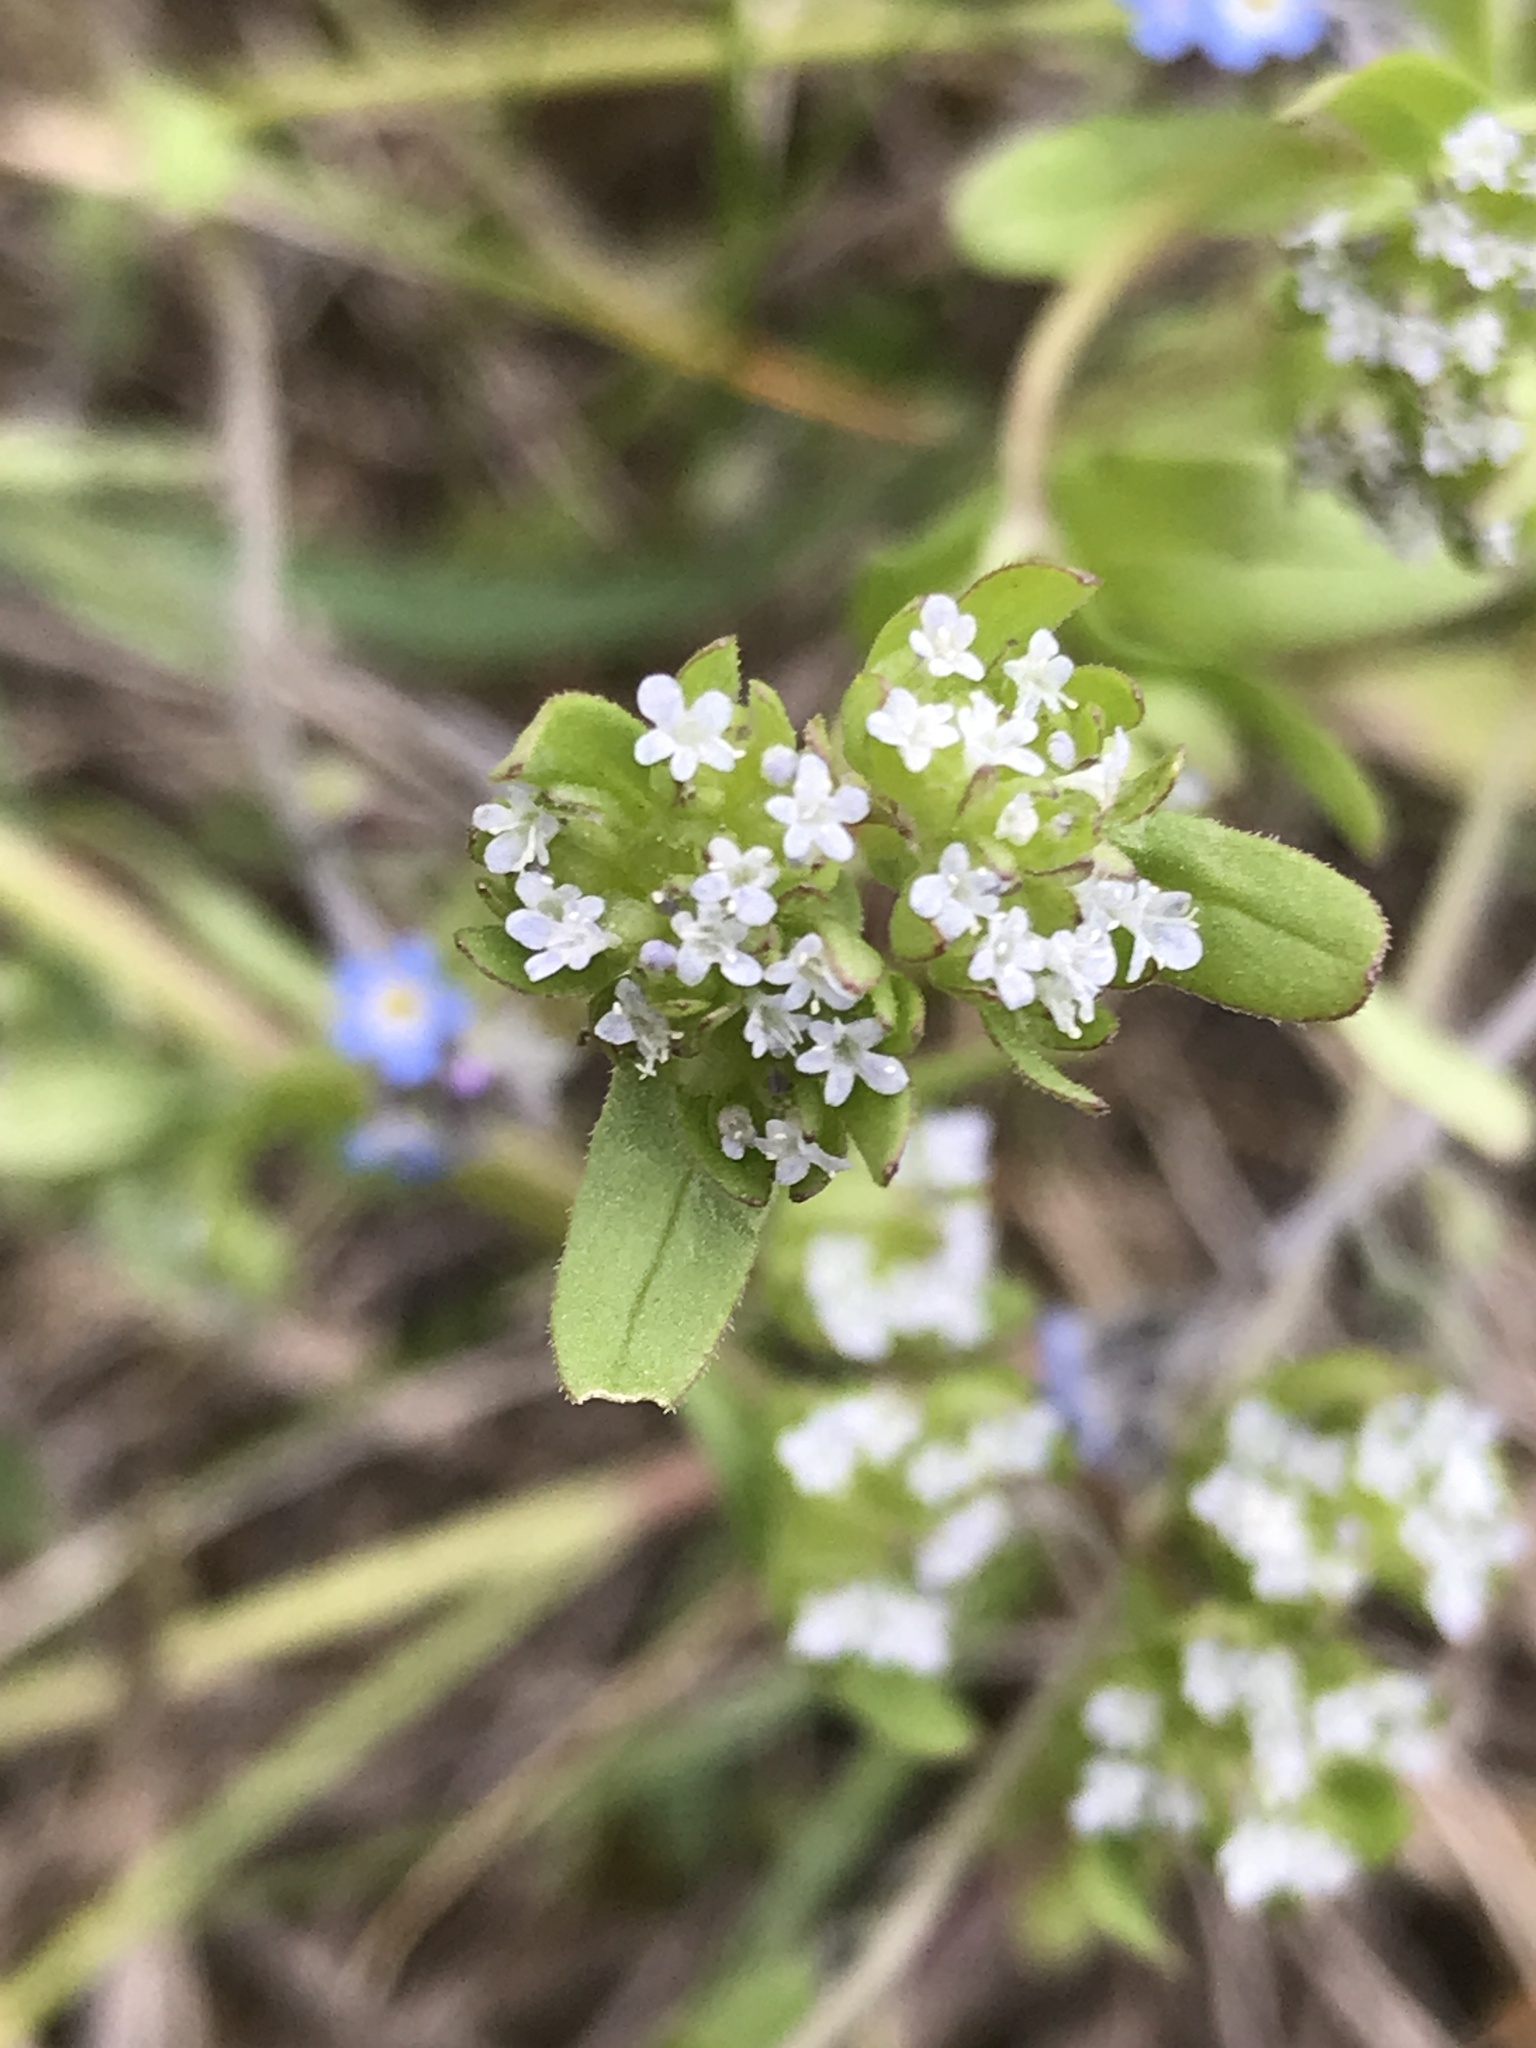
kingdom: Plantae
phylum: Tracheophyta
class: Magnoliopsida
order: Dipsacales
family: Caprifoliaceae
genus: Valerianella
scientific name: Valerianella locusta
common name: Common cornsalad
